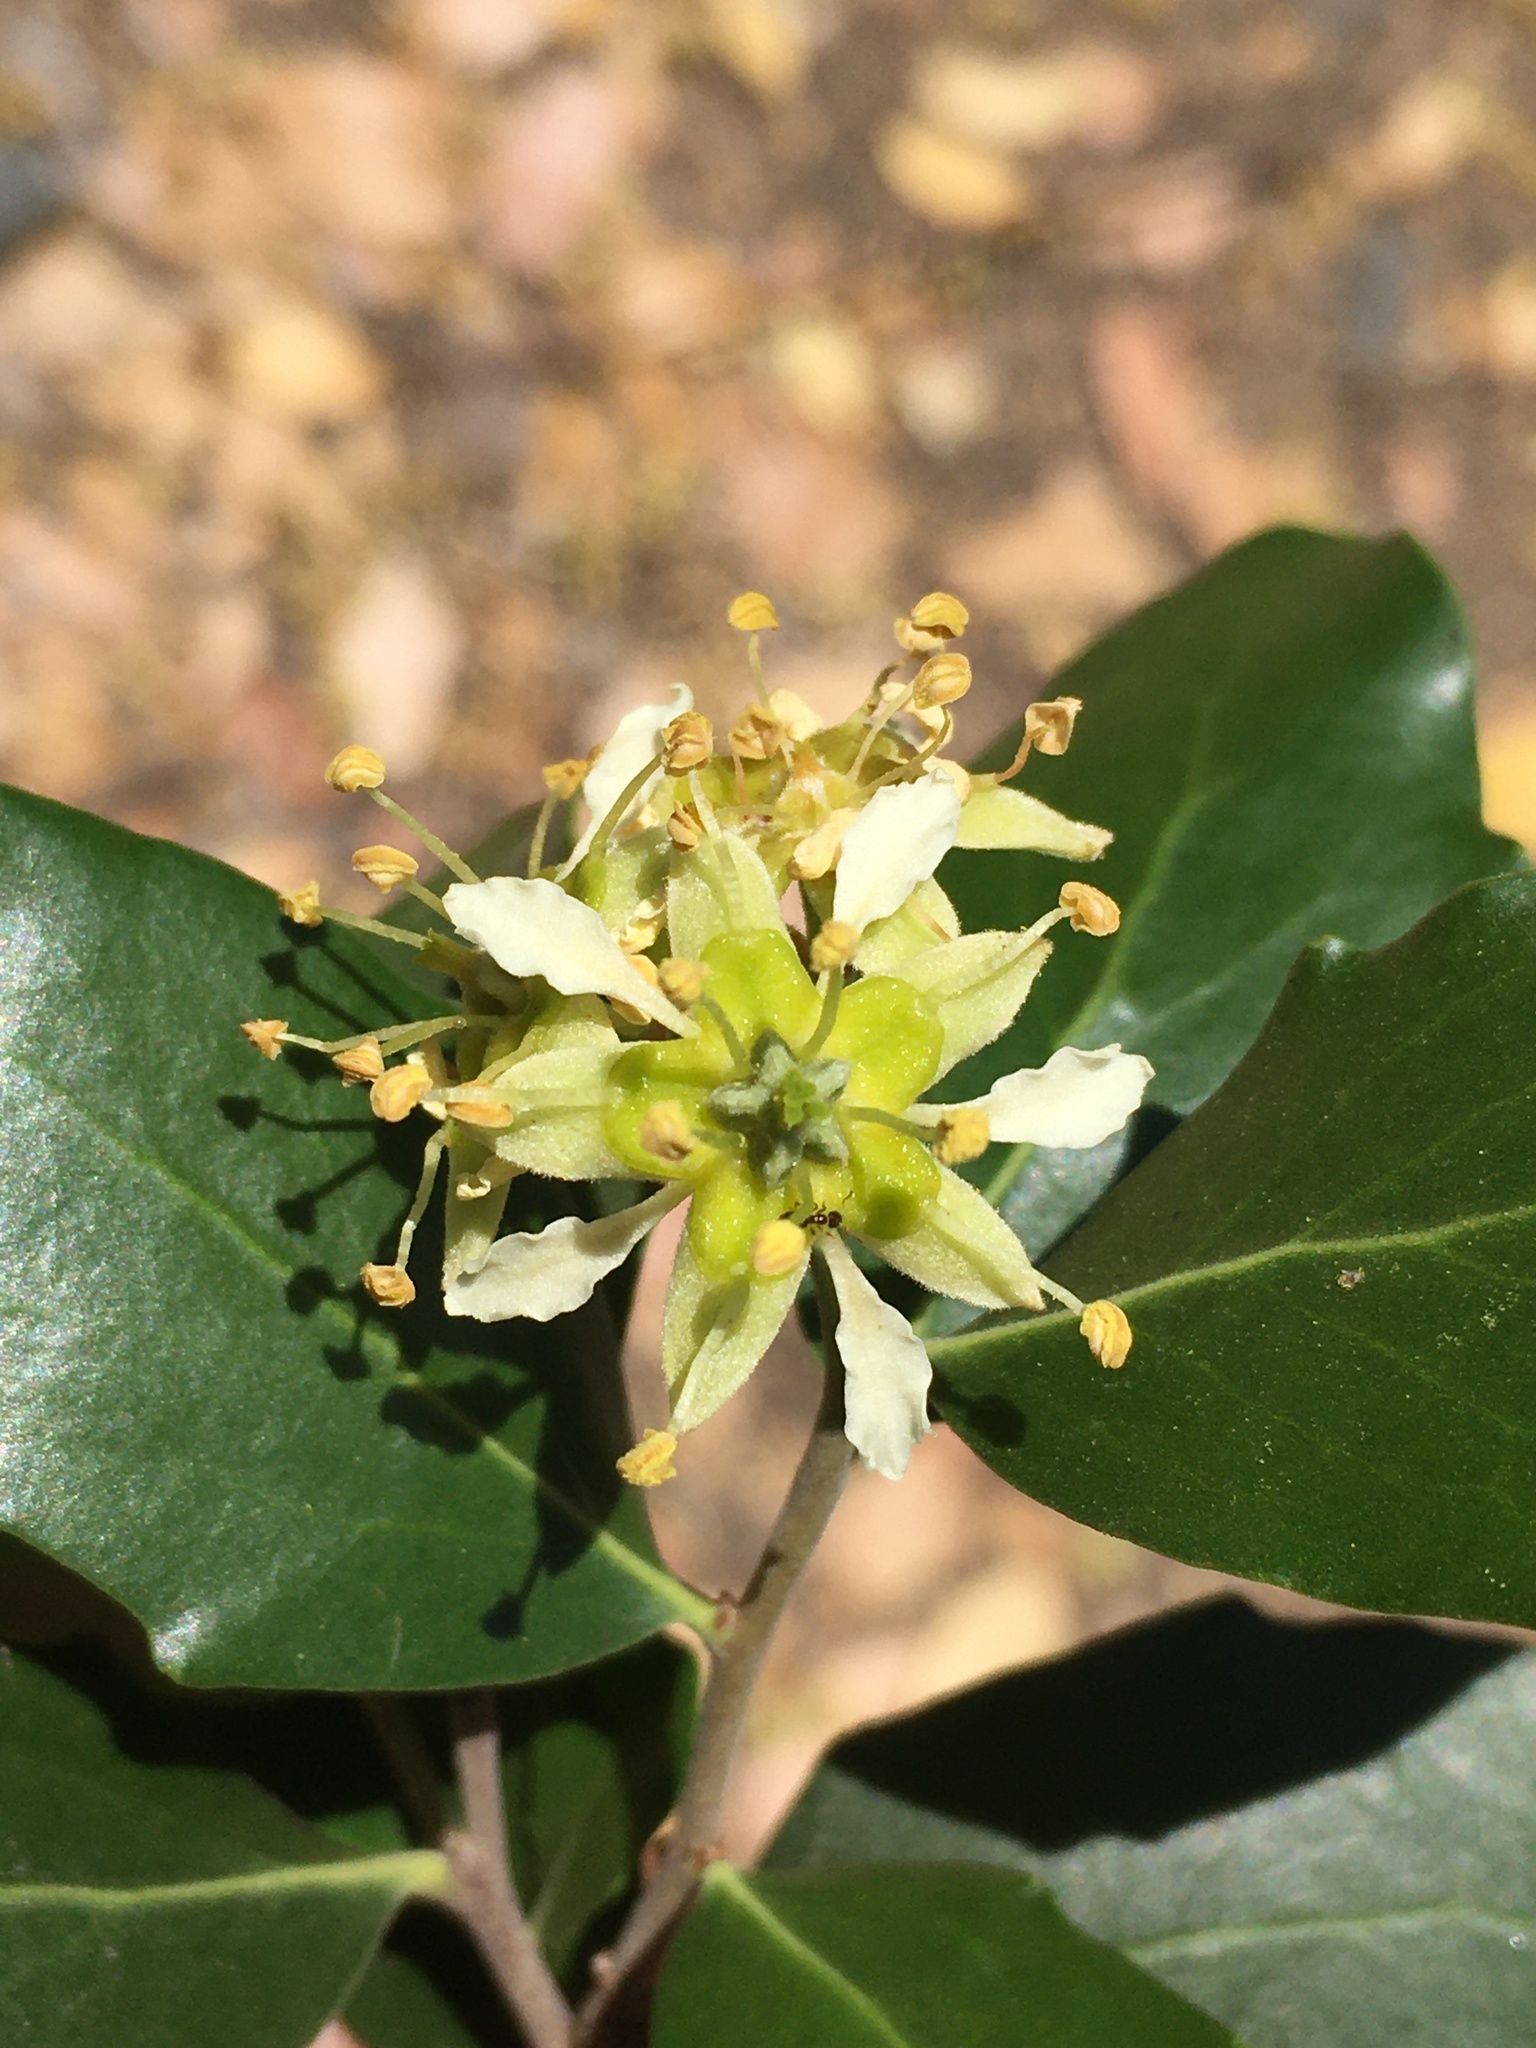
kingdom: Plantae
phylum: Tracheophyta
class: Magnoliopsida
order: Fabales
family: Quillajaceae
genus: Quillaja
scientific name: Quillaja saponaria
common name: Murillo's-bark
